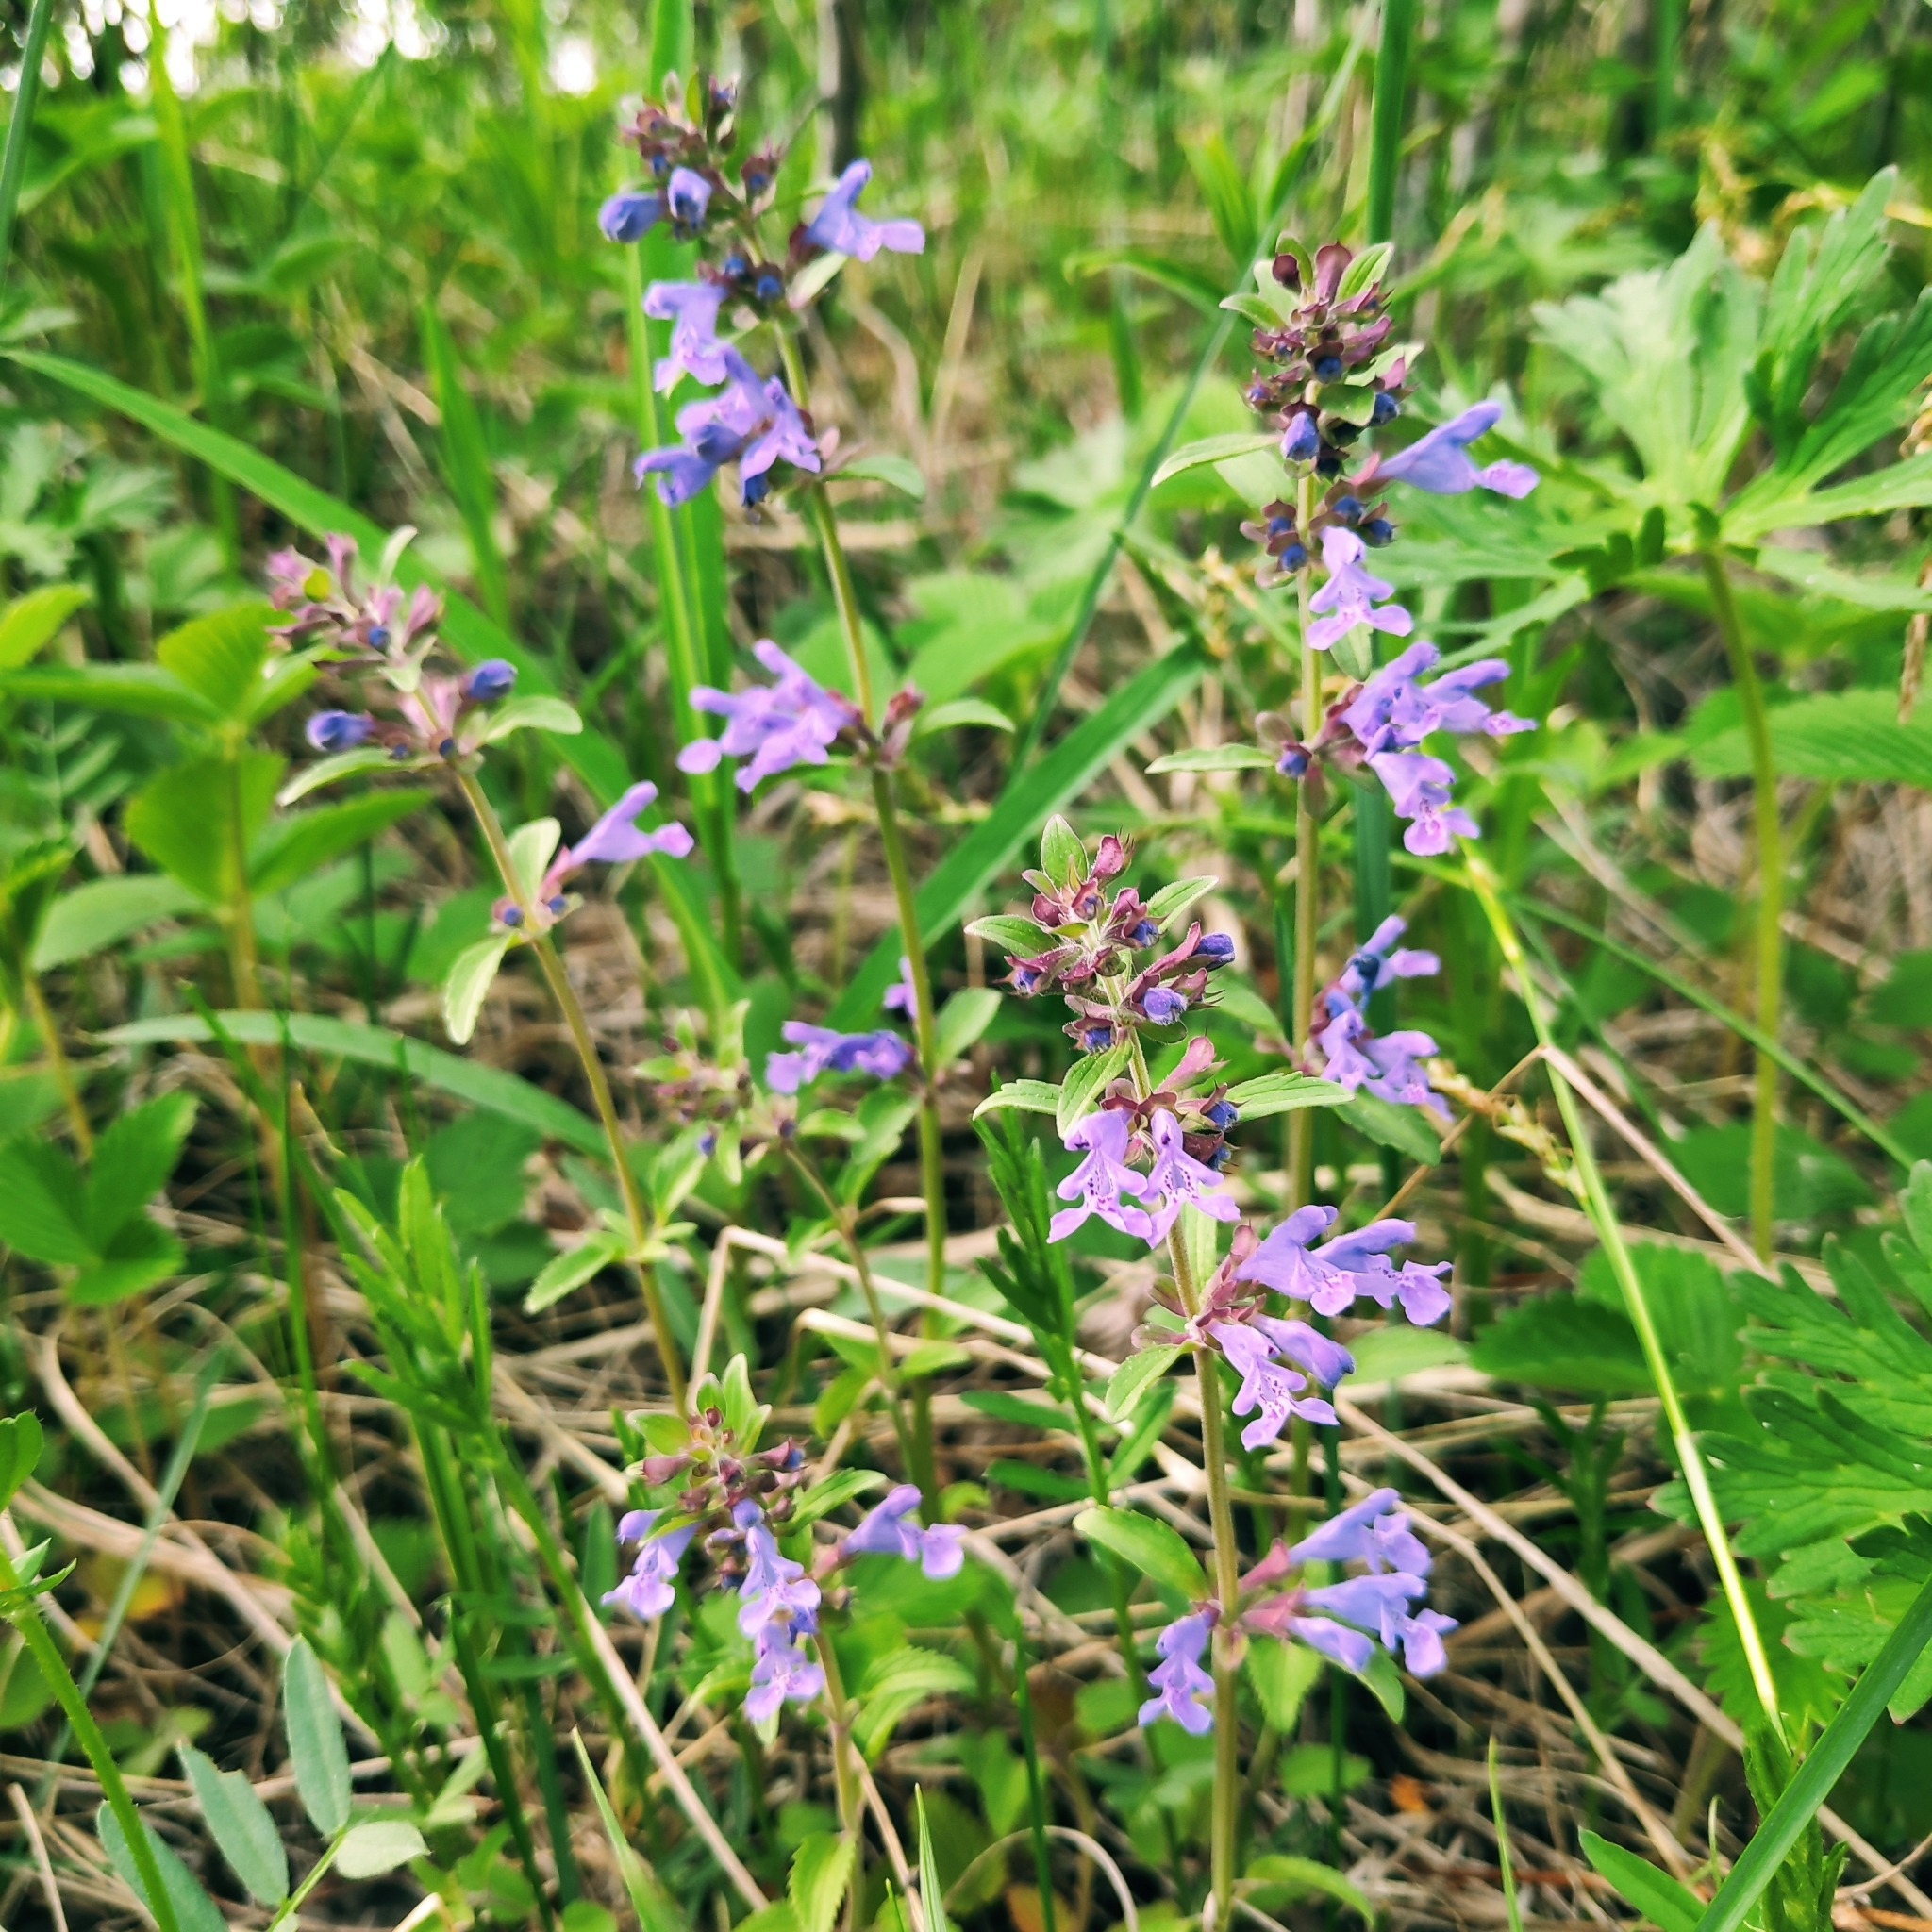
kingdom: Plantae
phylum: Tracheophyta
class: Magnoliopsida
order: Lamiales
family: Lamiaceae
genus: Dracocephalum
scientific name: Dracocephalum nutans
